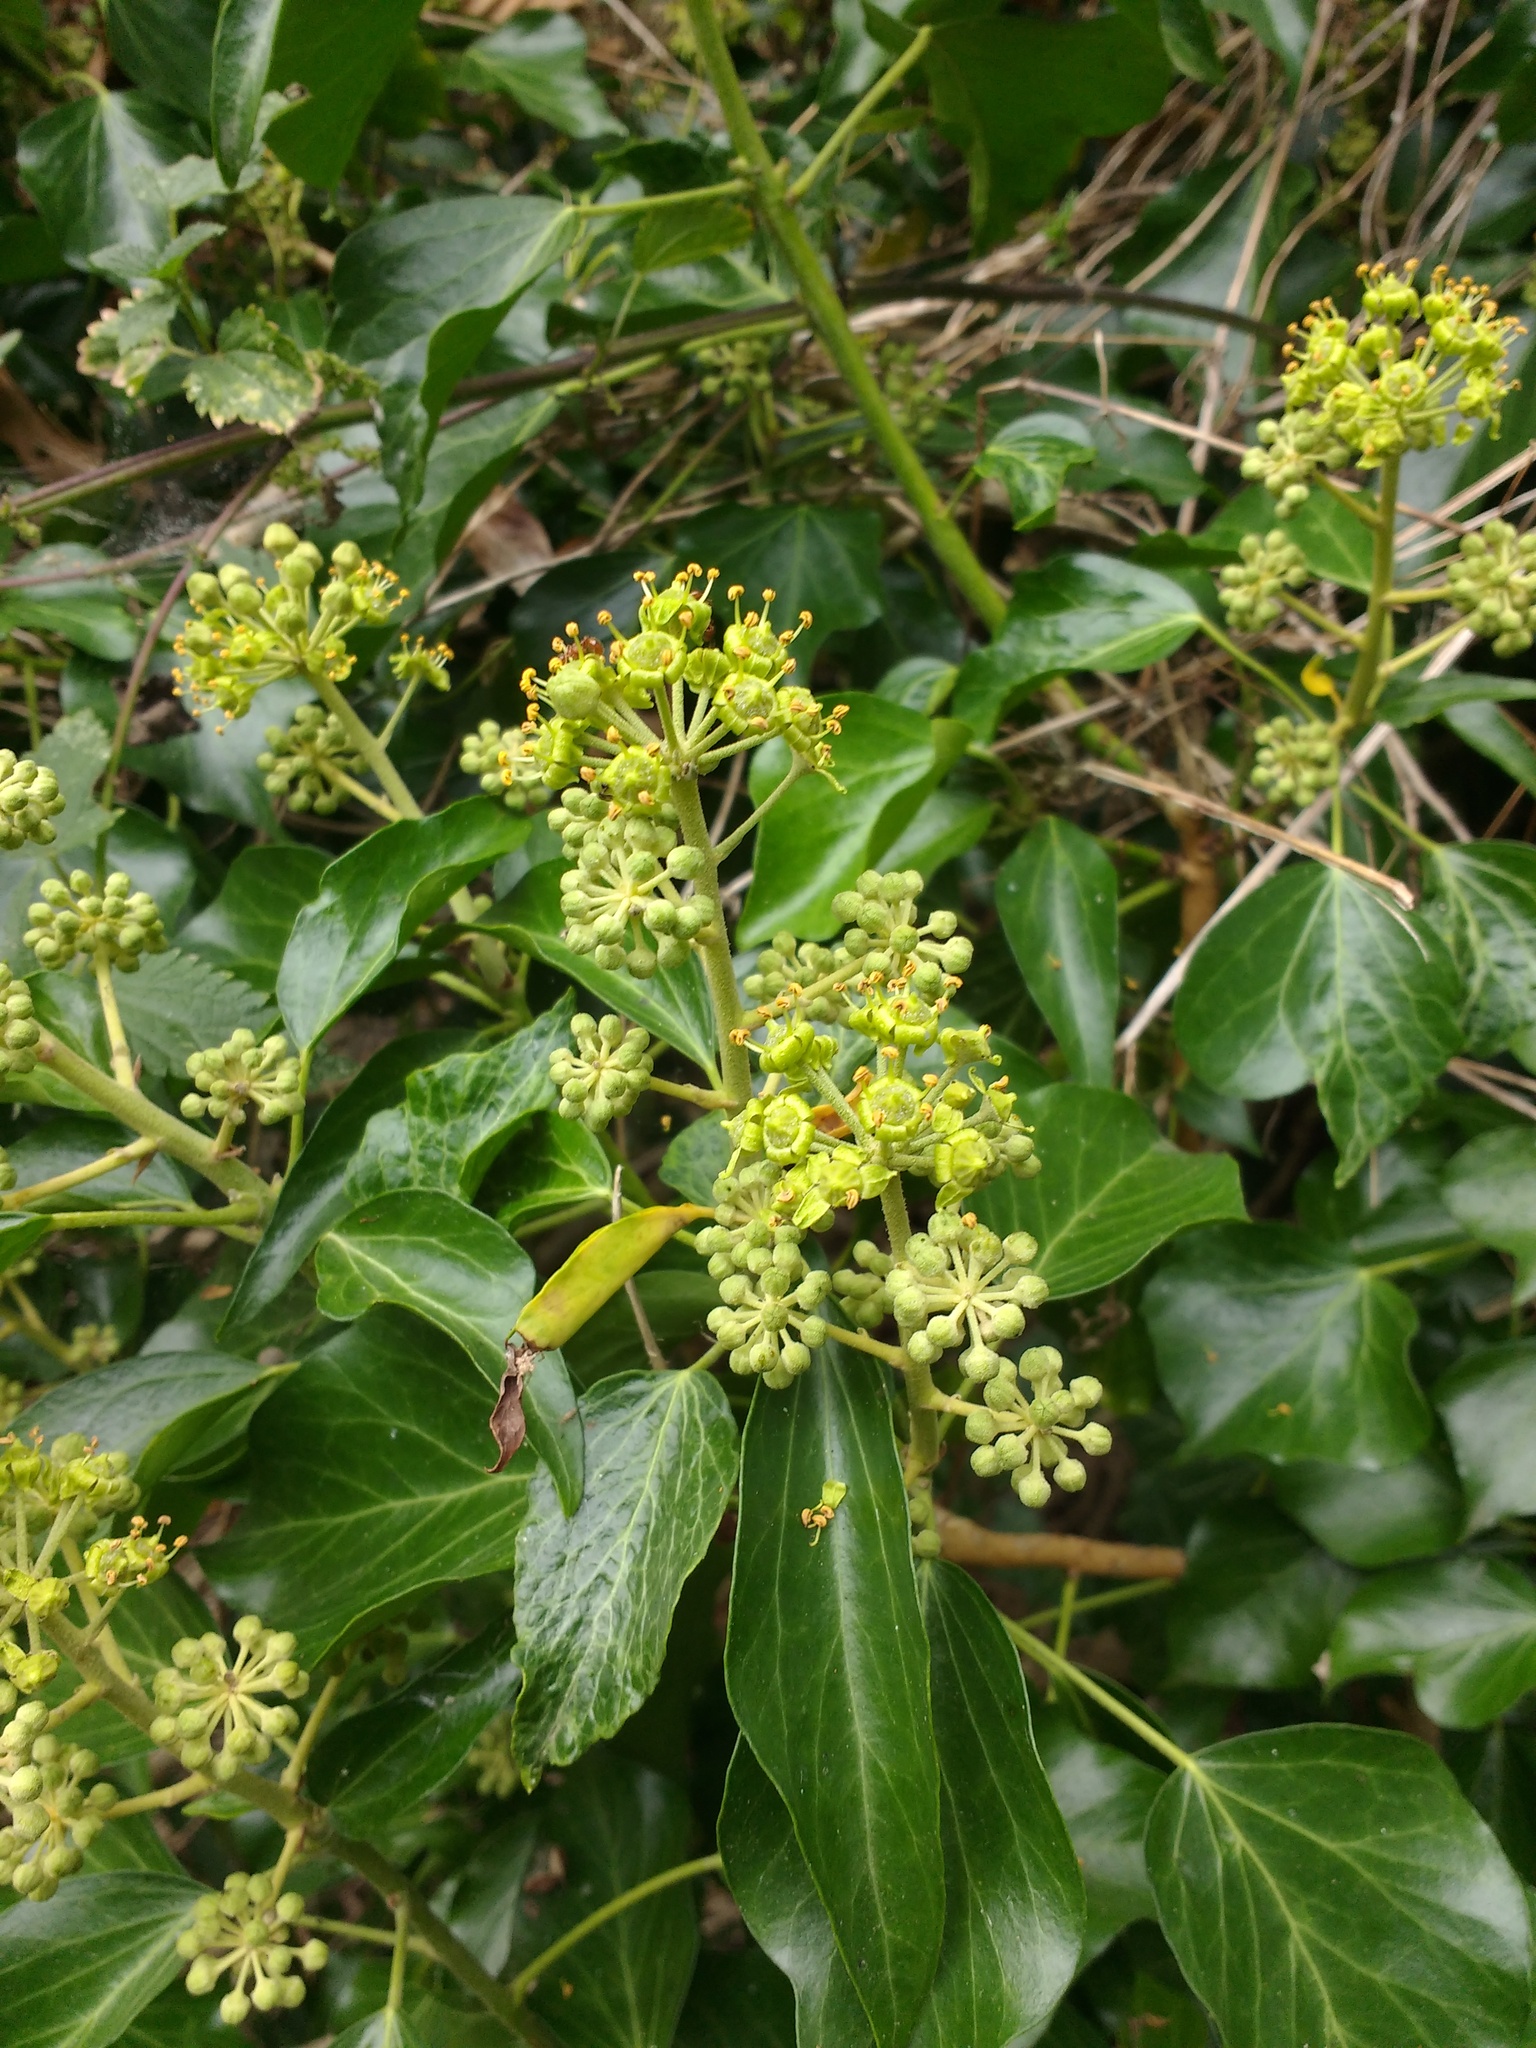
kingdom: Plantae
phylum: Tracheophyta
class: Magnoliopsida
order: Apiales
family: Araliaceae
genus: Hedera
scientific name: Hedera helix
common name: Ivy
